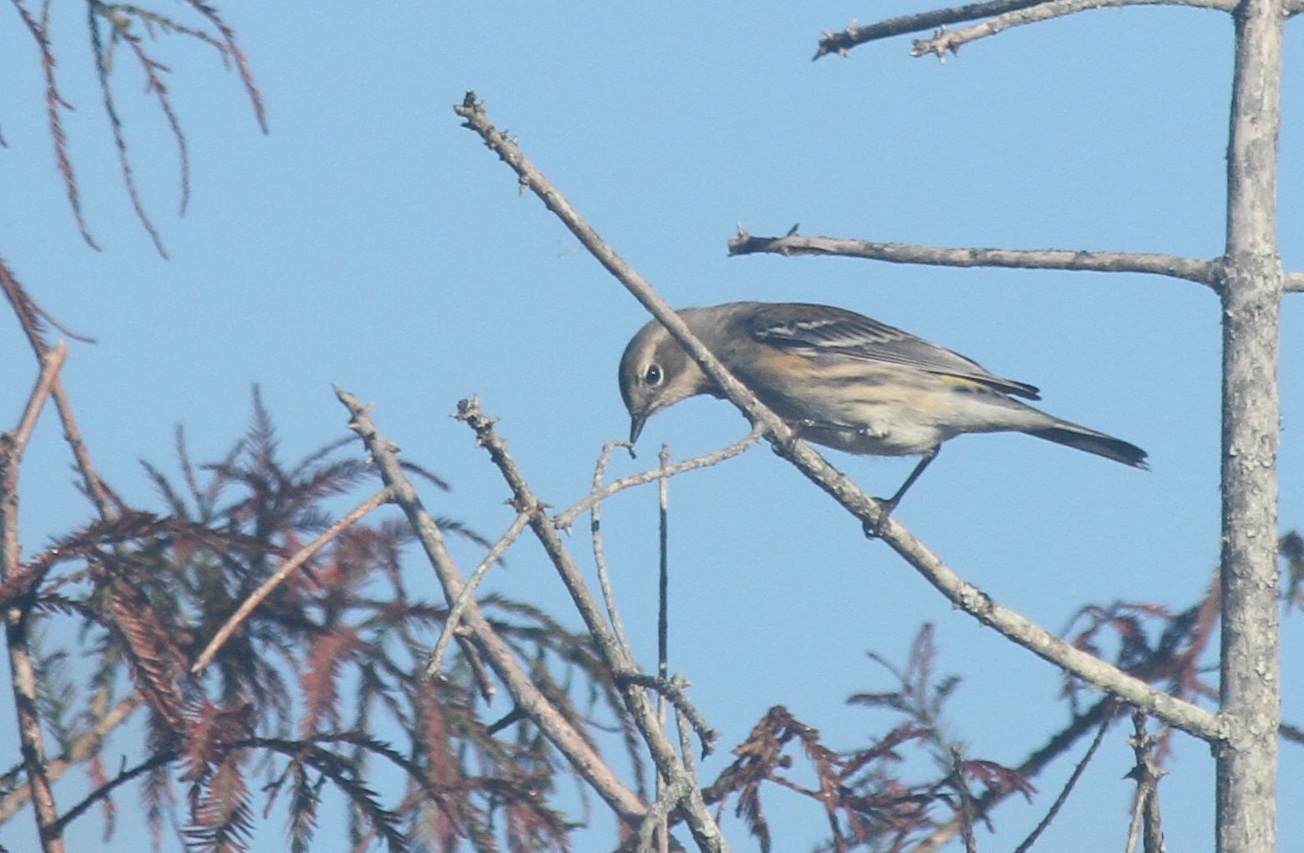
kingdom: Animalia
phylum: Chordata
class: Aves
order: Passeriformes
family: Parulidae
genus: Setophaga
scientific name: Setophaga coronata
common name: Myrtle warbler
